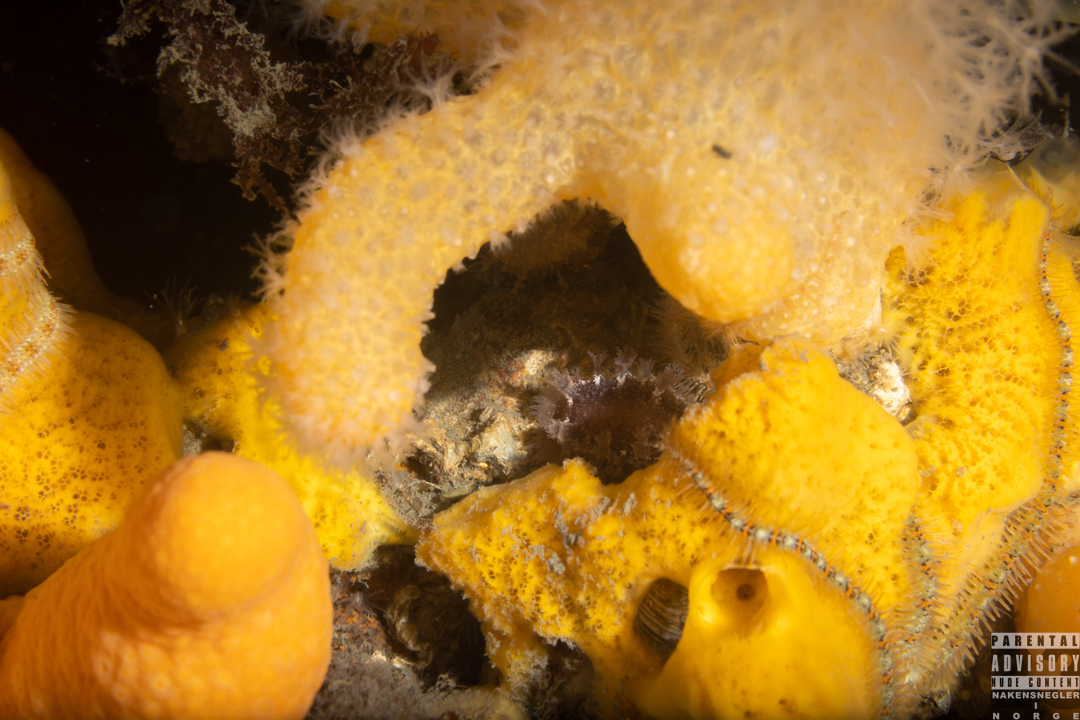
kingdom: Animalia
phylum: Mollusca
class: Gastropoda
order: Nudibranchia
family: Tritoniidae
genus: Tritonia
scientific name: Tritonia hombergii
